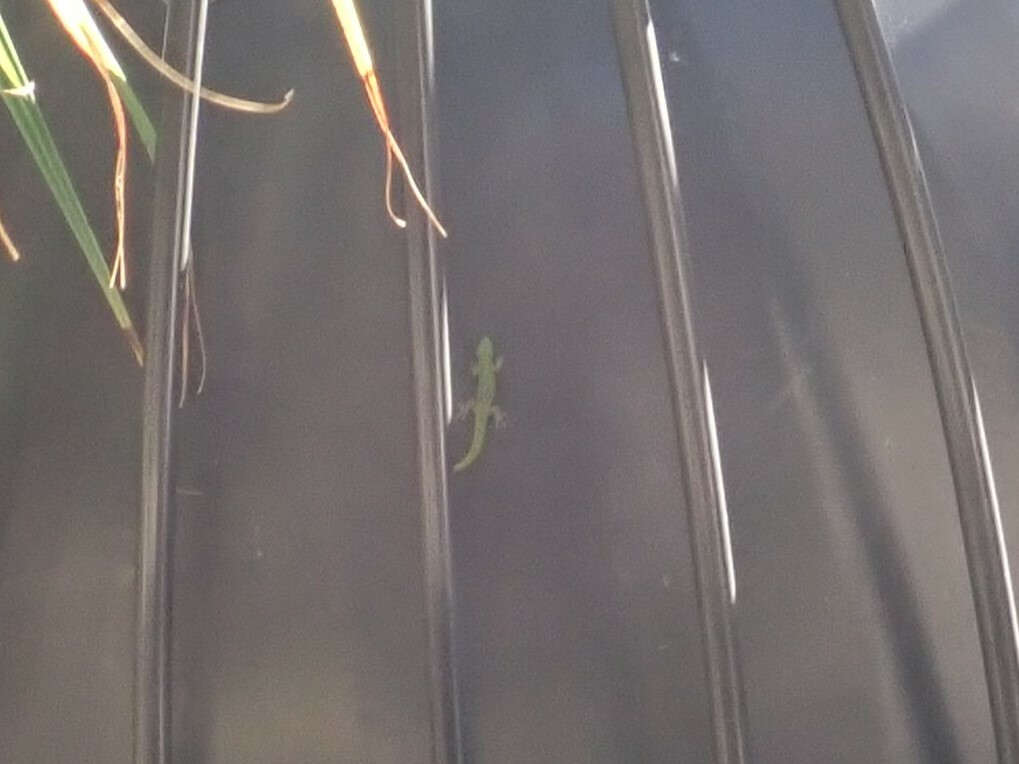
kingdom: Animalia
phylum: Chordata
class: Squamata
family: Gekkonidae
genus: Phelsuma
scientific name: Phelsuma laticauda
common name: Gold dust day gecko
